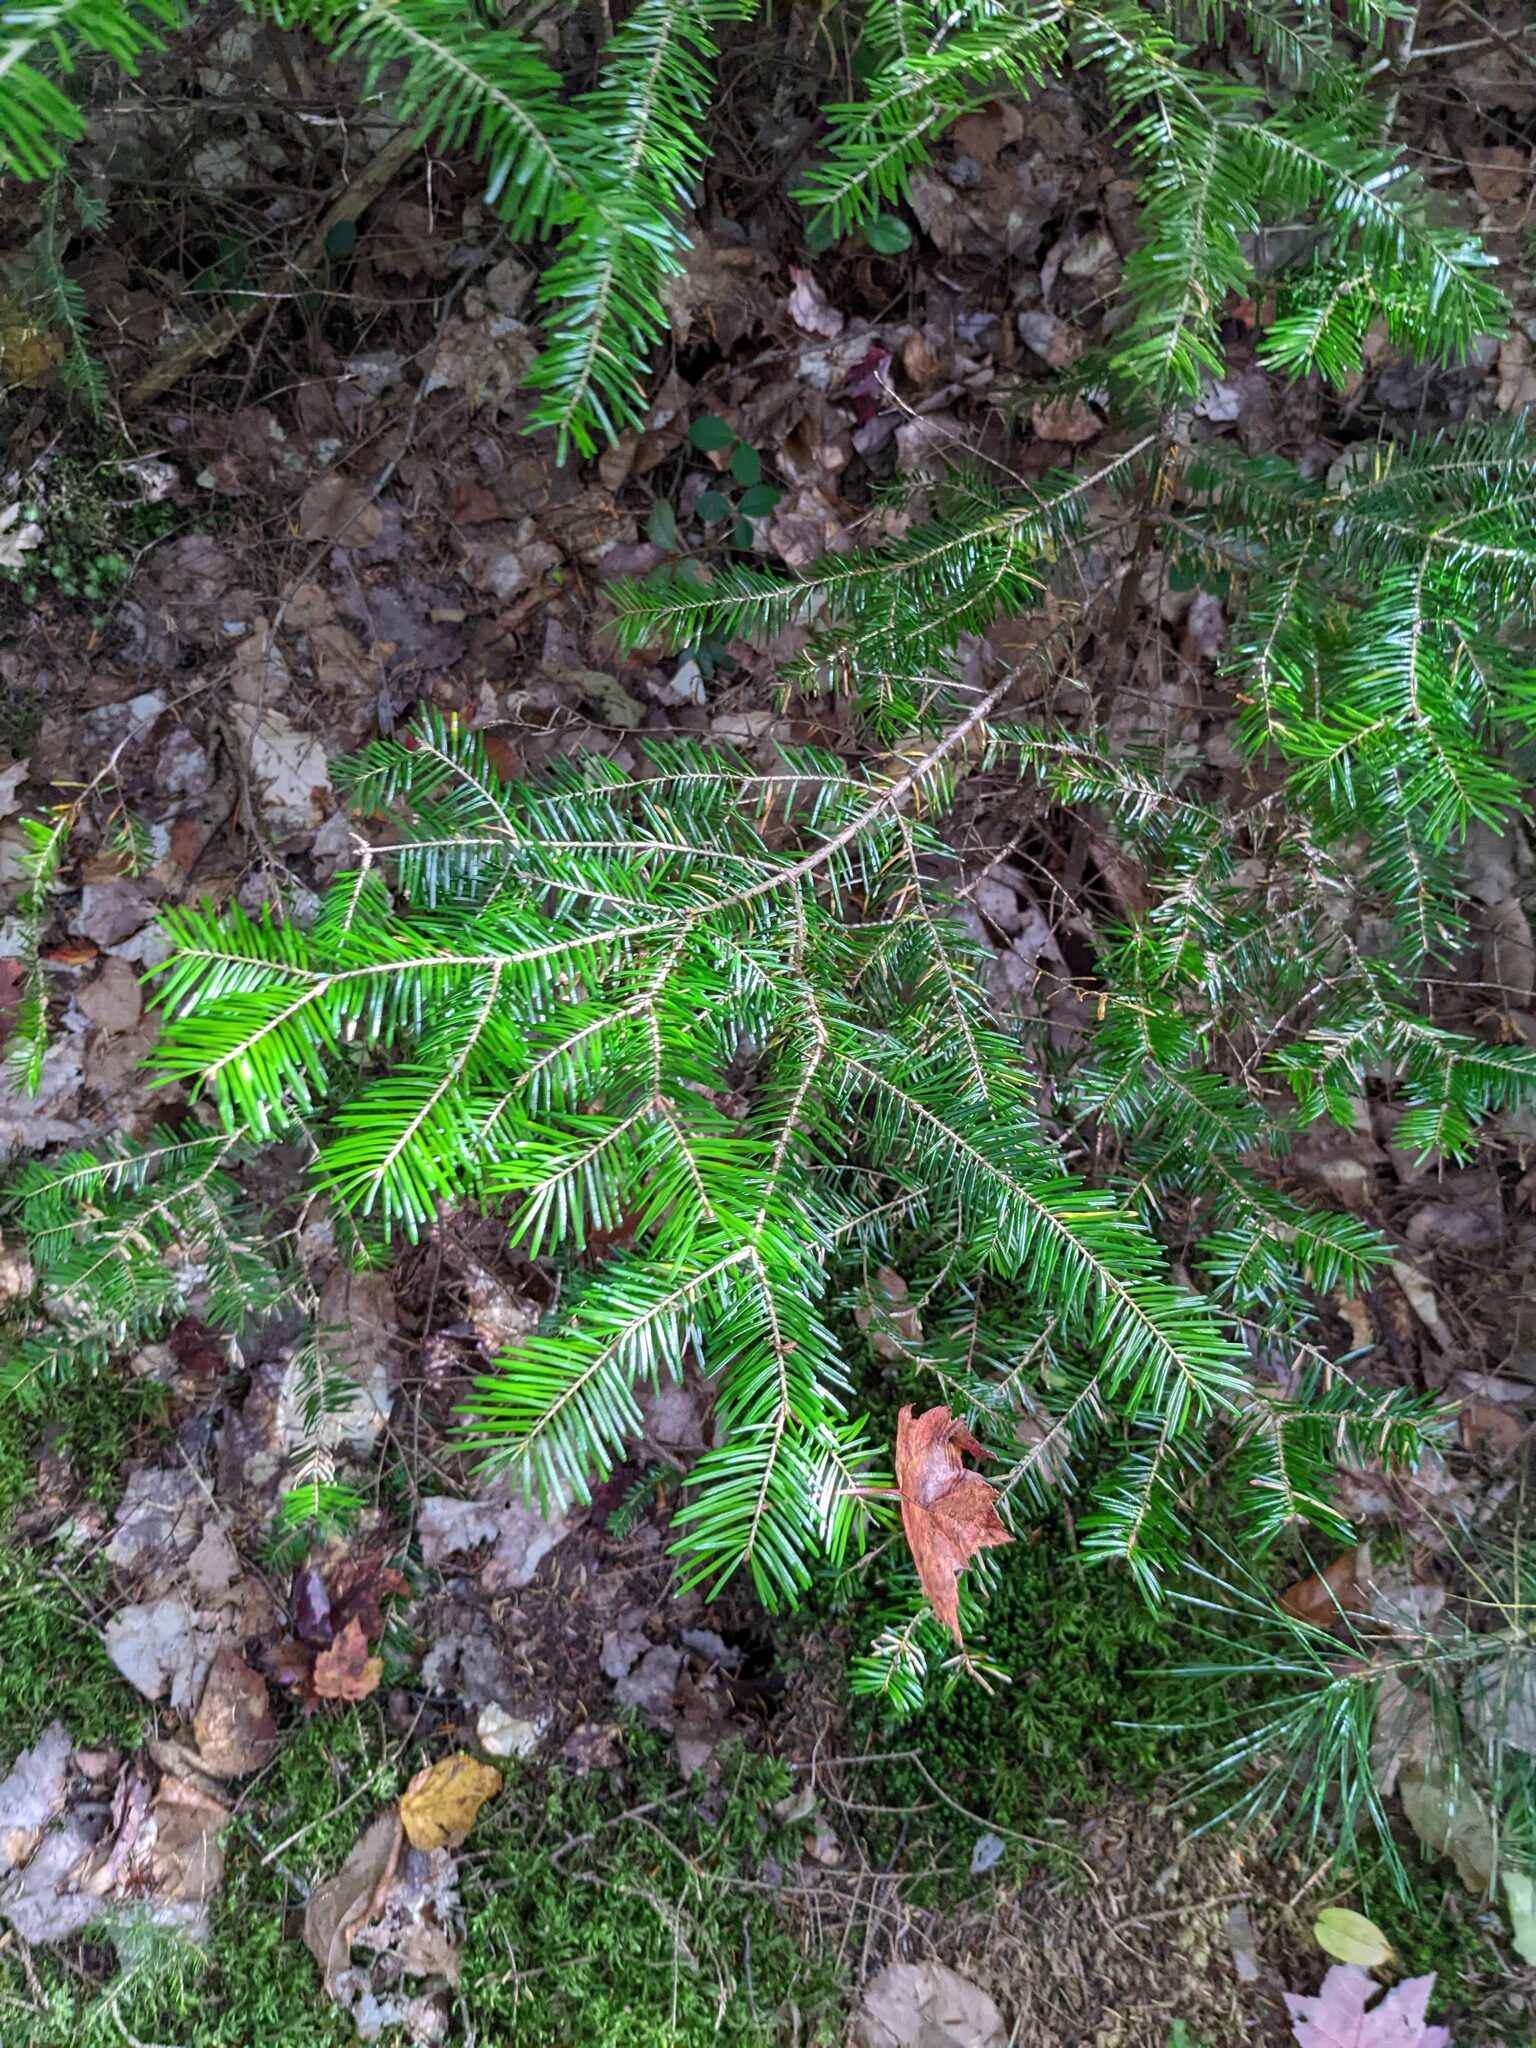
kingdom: Plantae
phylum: Tracheophyta
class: Pinopsida
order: Pinales
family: Pinaceae
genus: Abies
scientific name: Abies balsamea
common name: Balsam fir
